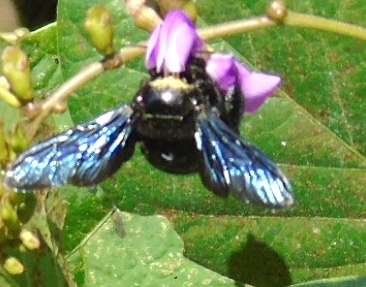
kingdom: Animalia
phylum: Arthropoda
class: Insecta
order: Hymenoptera
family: Apidae
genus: Xylocopa
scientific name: Xylocopa
